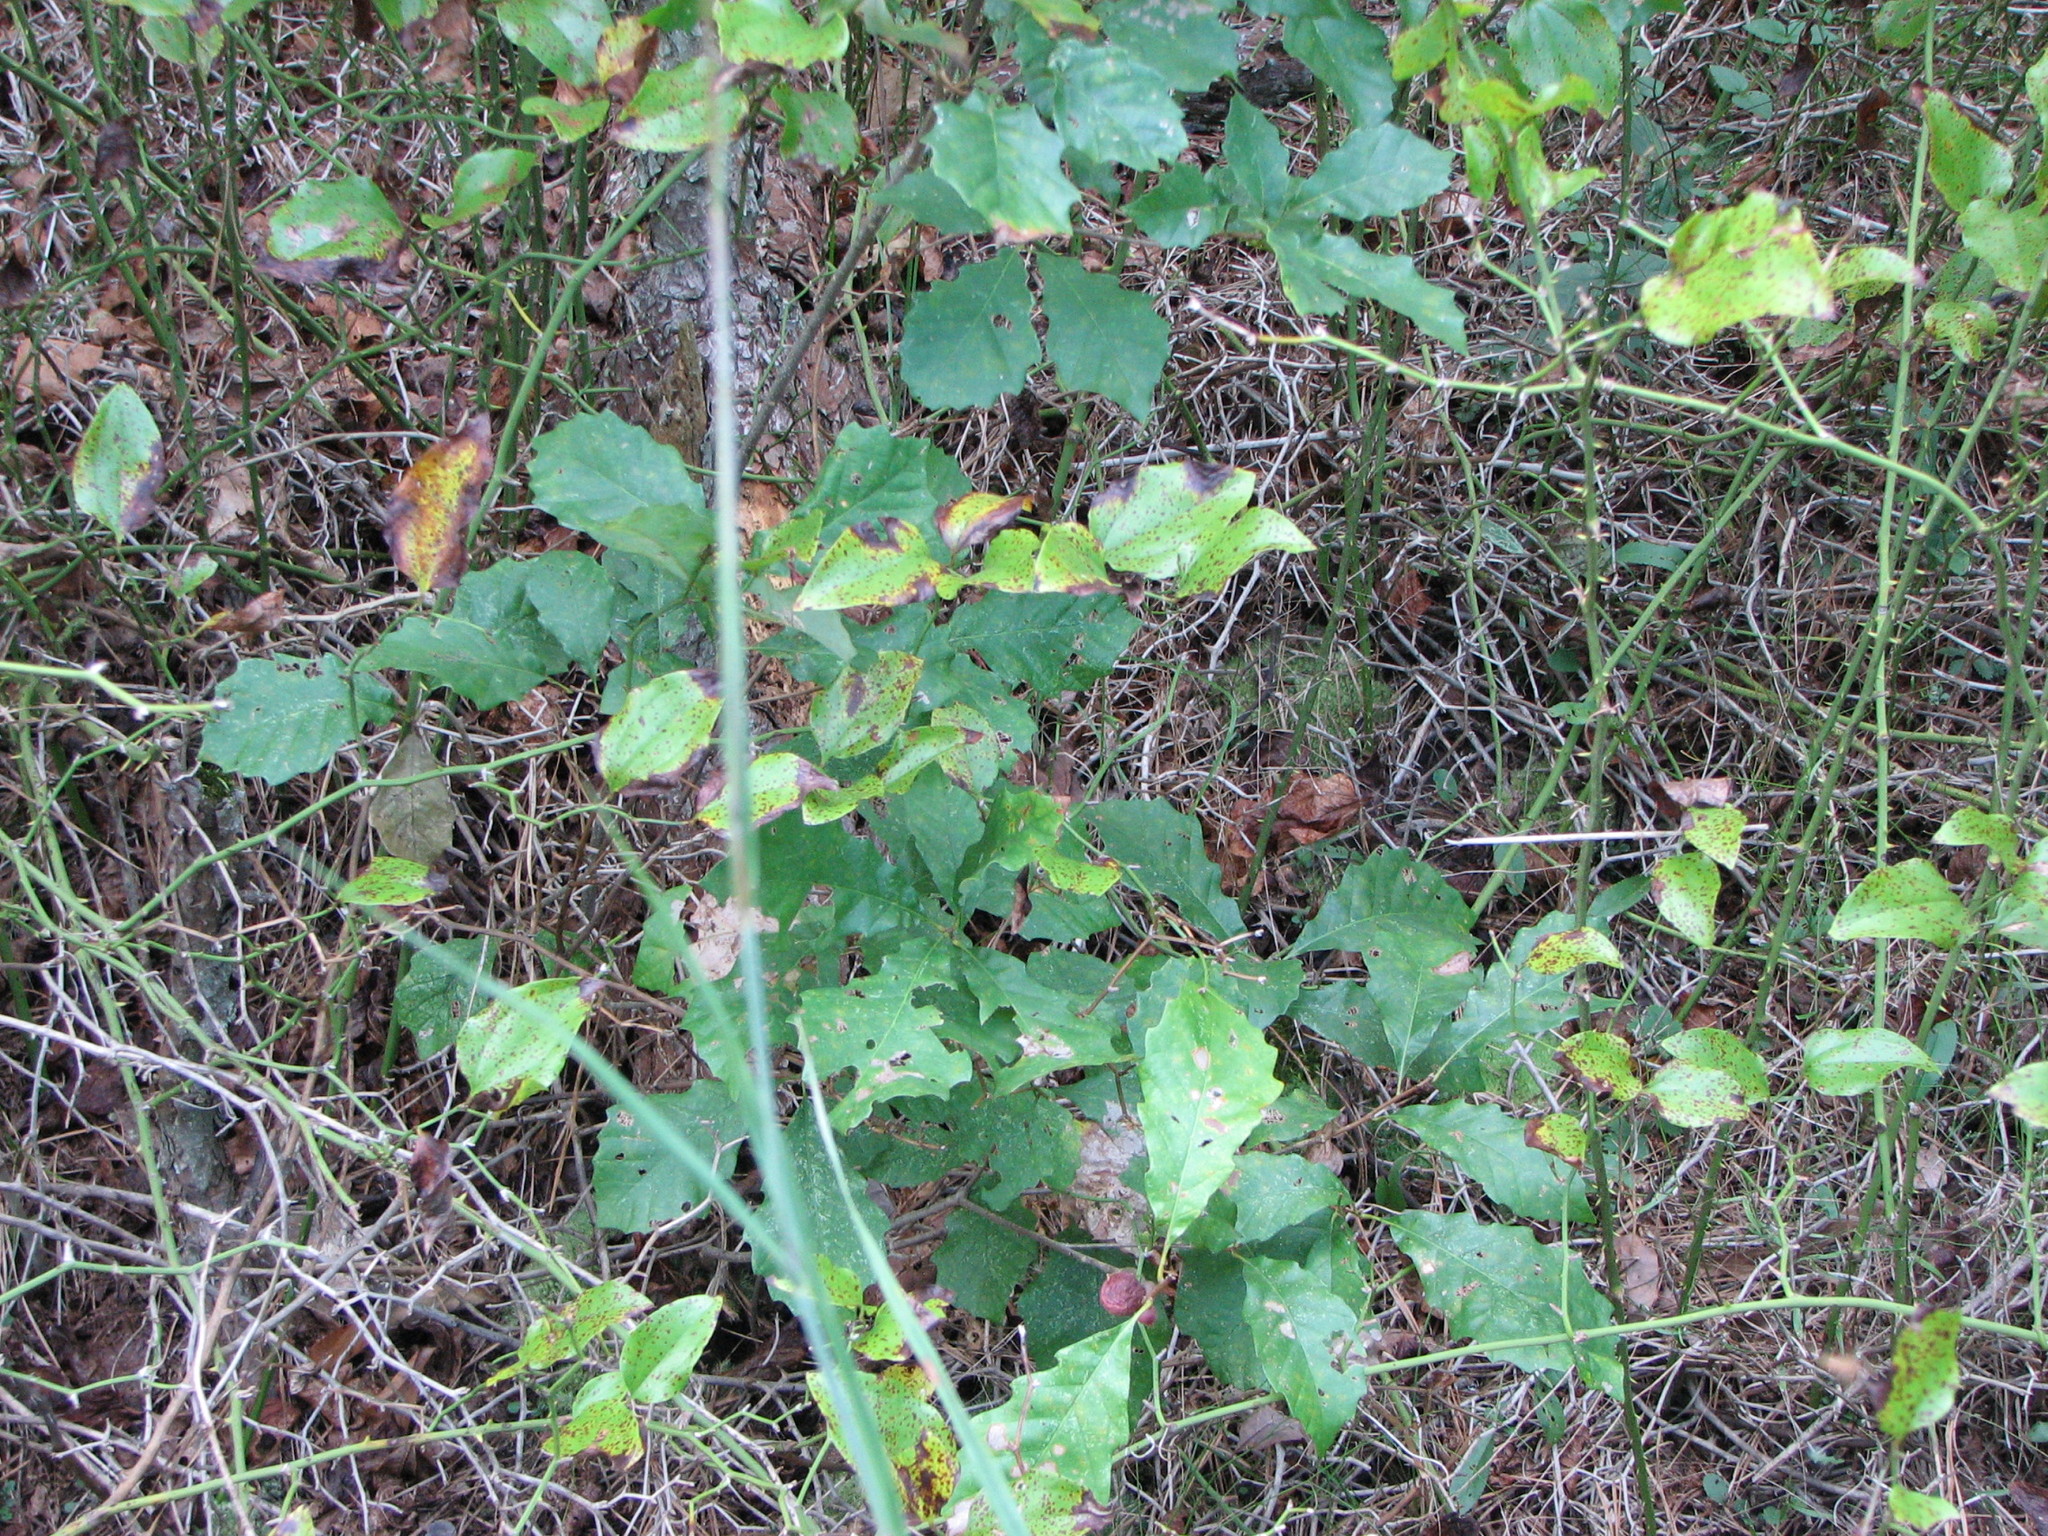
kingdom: Plantae
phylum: Tracheophyta
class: Magnoliopsida
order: Fagales
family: Fagaceae
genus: Quercus
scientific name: Quercus prinoides
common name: Dwarf chinkapin oak
